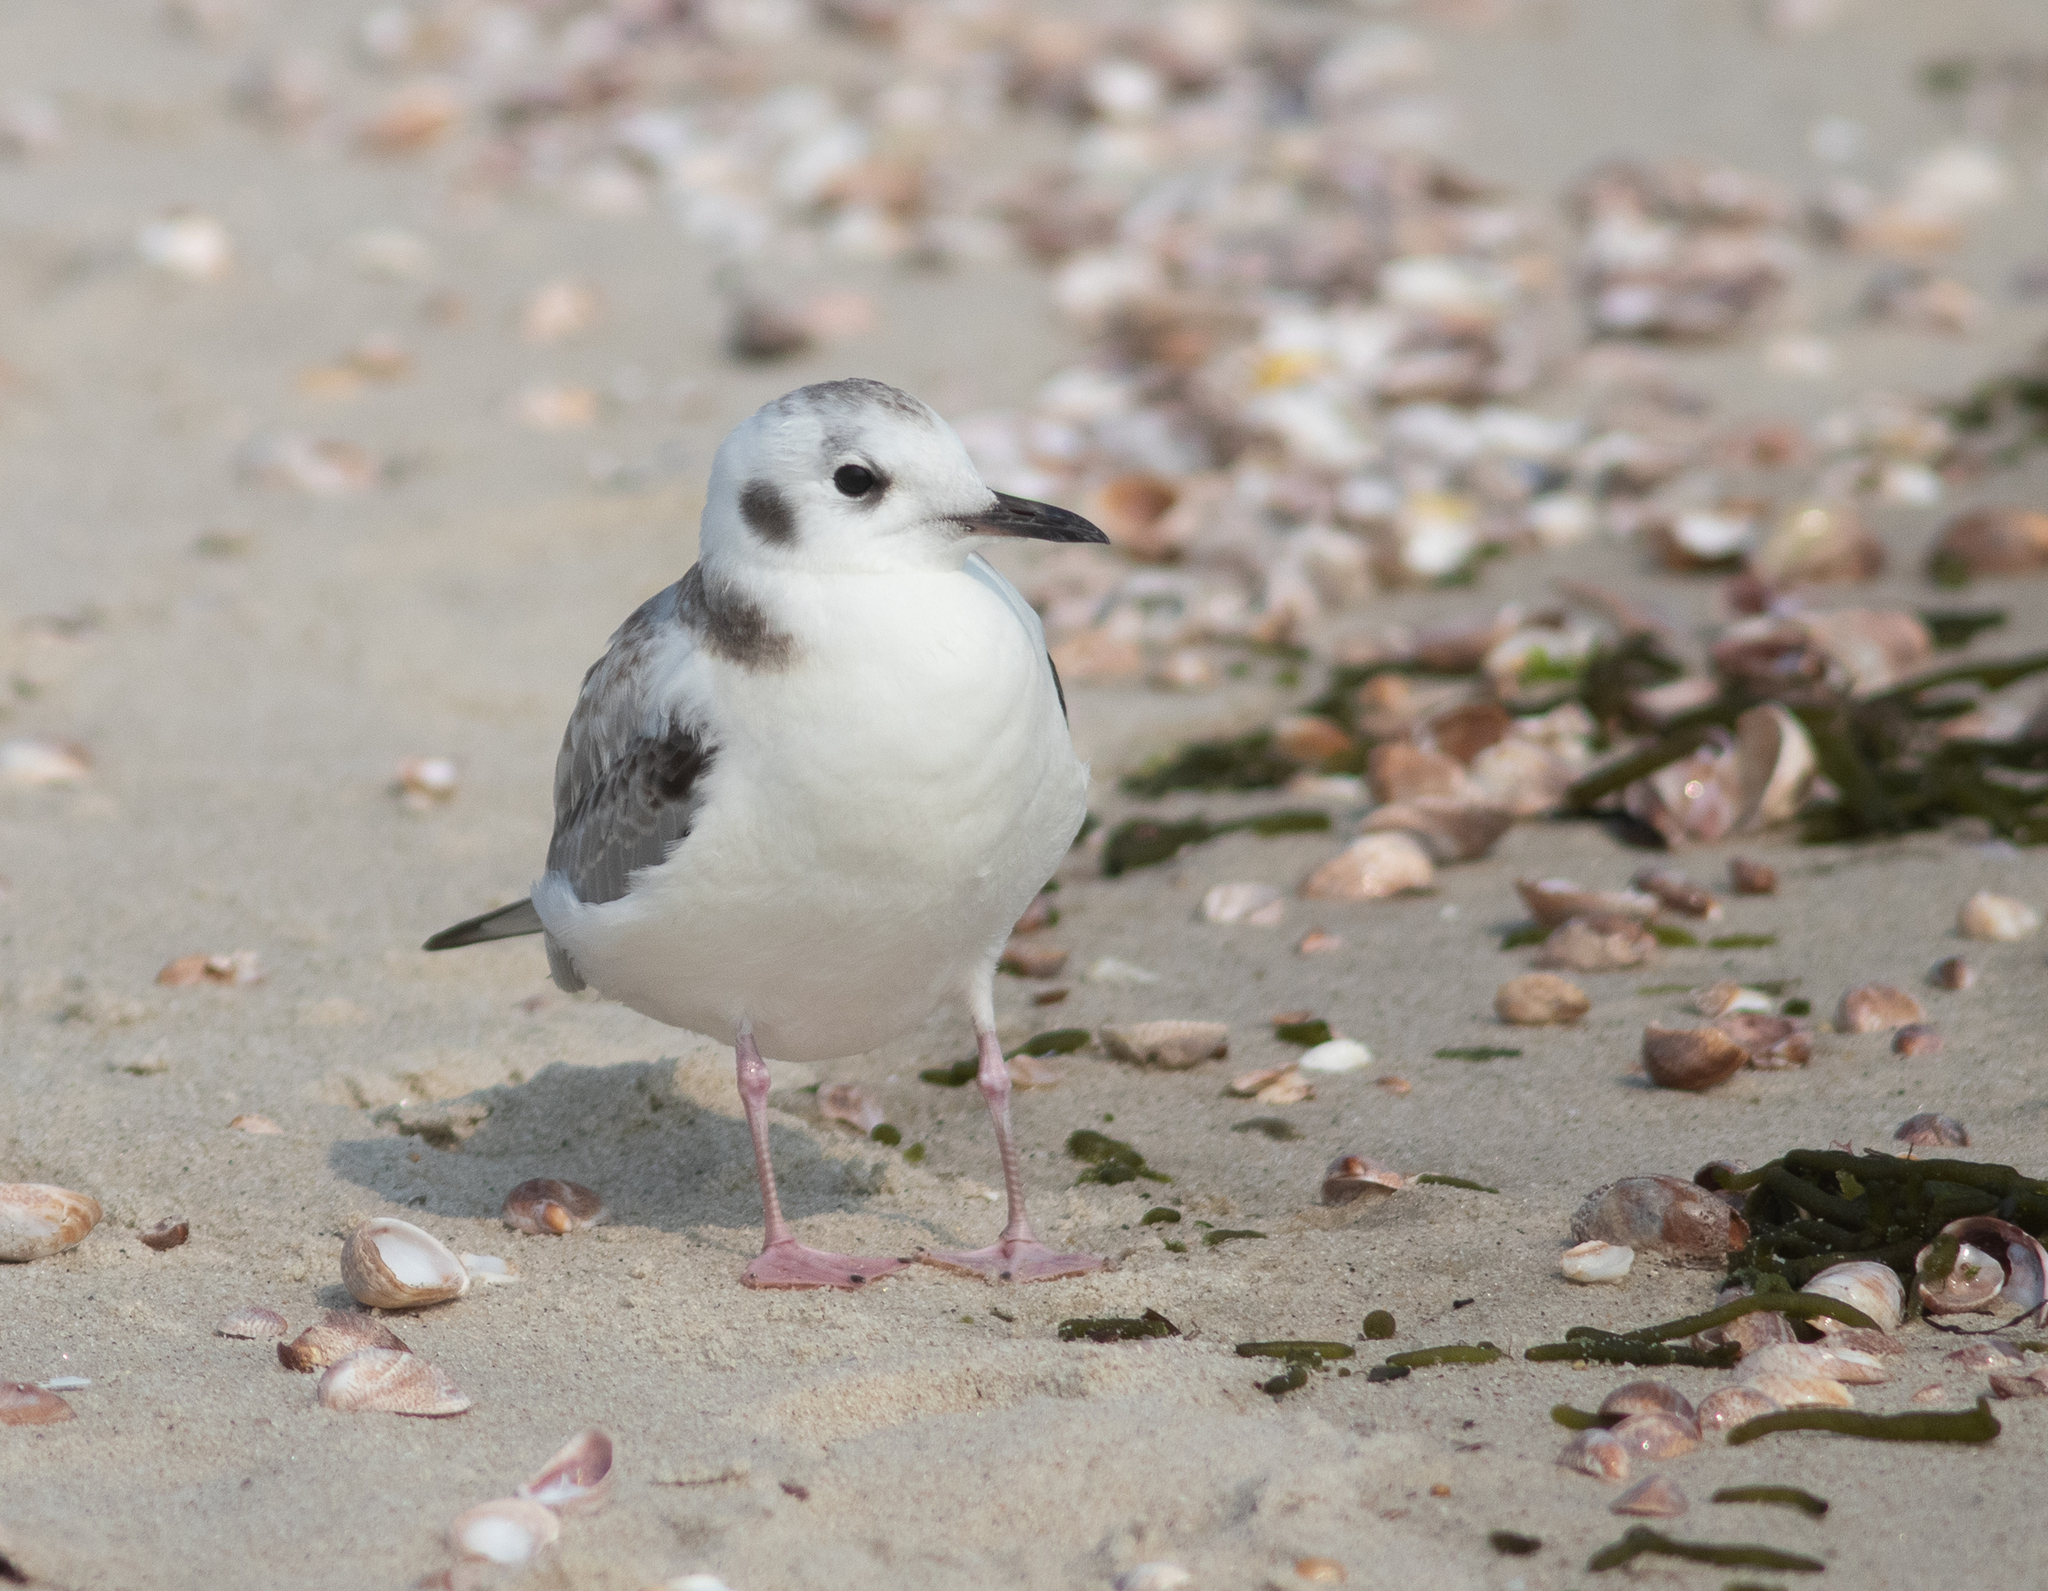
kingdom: Animalia
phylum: Chordata
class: Aves
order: Charadriiformes
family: Laridae
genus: Chroicocephalus
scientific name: Chroicocephalus philadelphia
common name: Bonaparte's gull
